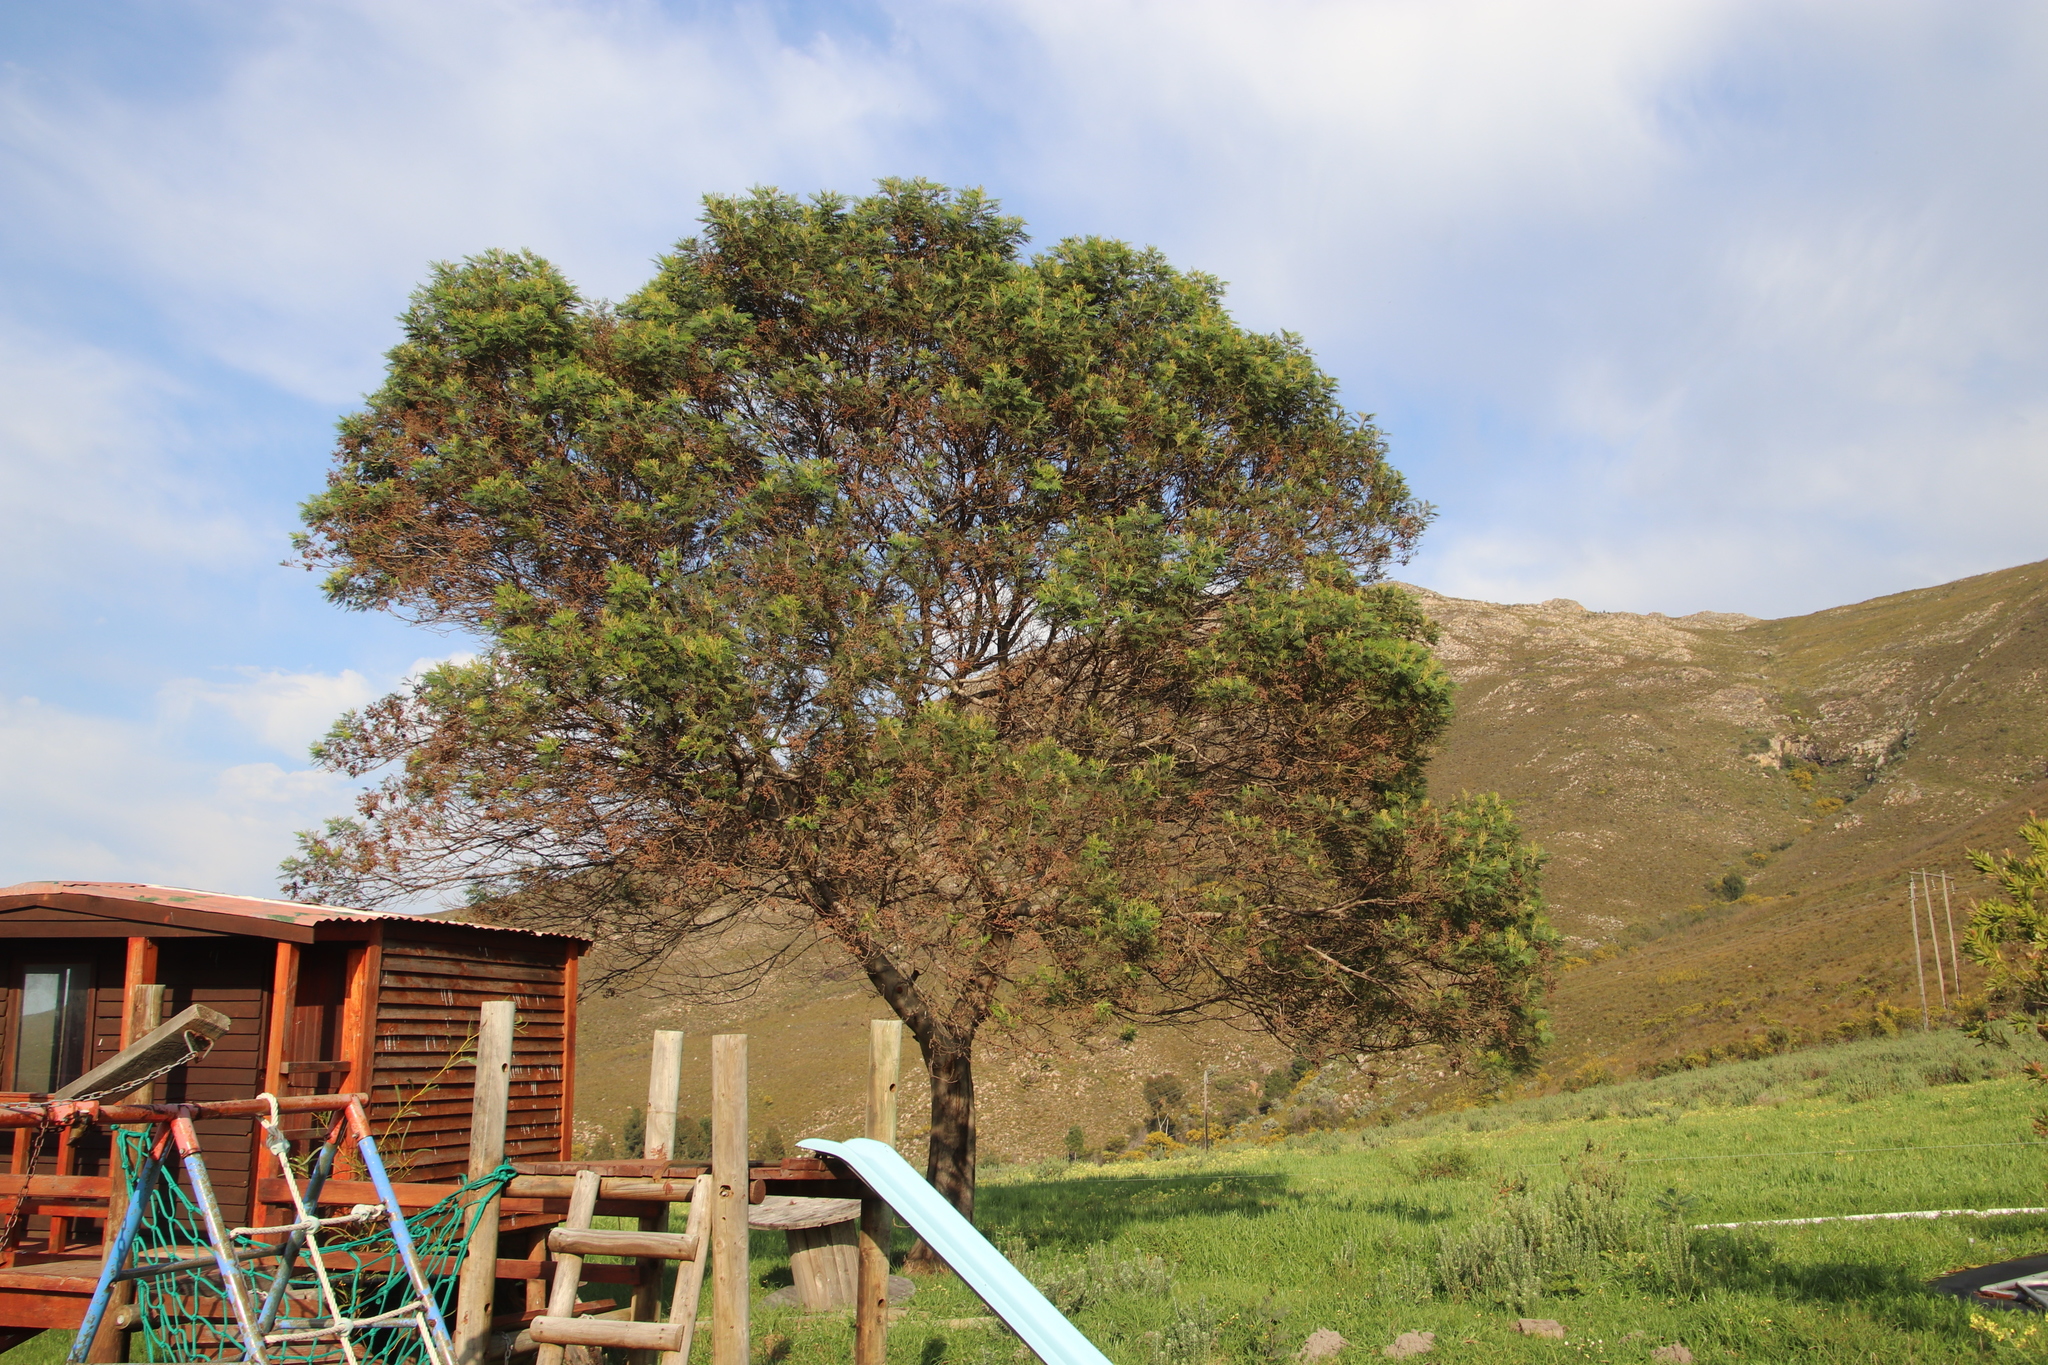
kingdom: Animalia
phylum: Arthropoda
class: Insecta
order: Diptera
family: Cecidomyiidae
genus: Dasineura
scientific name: Dasineura rubiformis
